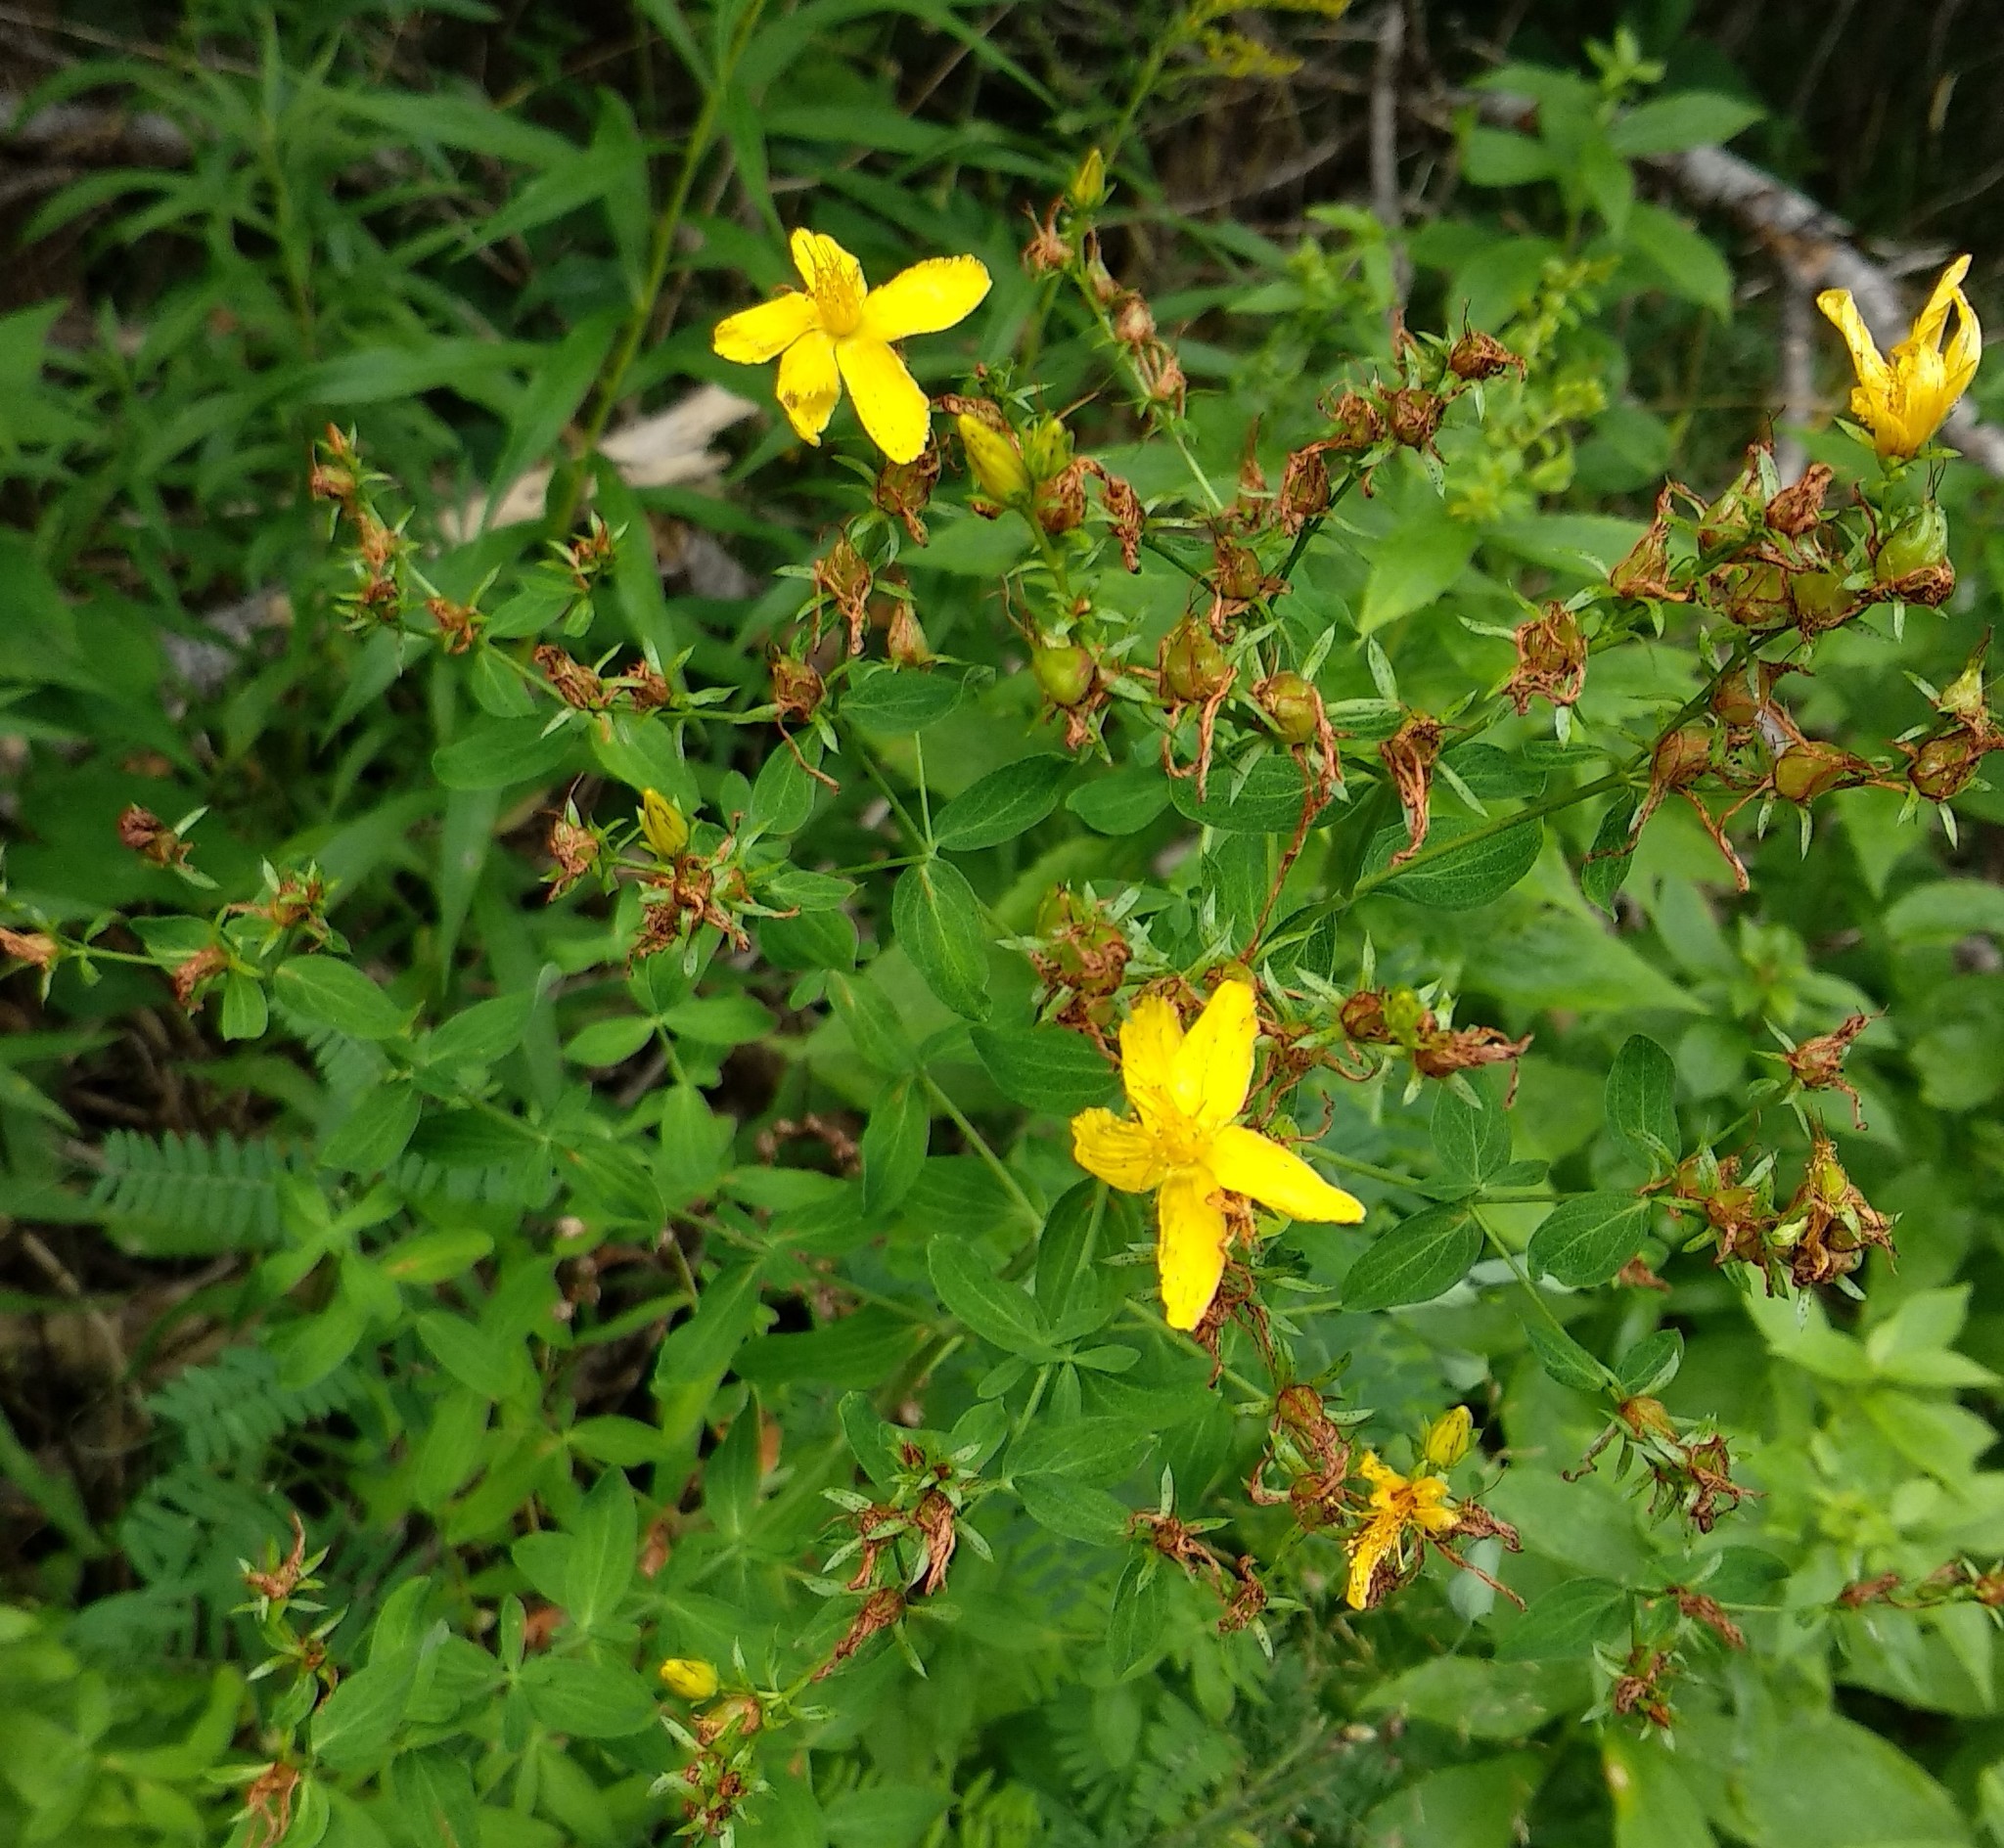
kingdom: Plantae
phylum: Tracheophyta
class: Magnoliopsida
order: Malpighiales
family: Hypericaceae
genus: Hypericum
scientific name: Hypericum perforatum
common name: Common st. johnswort
